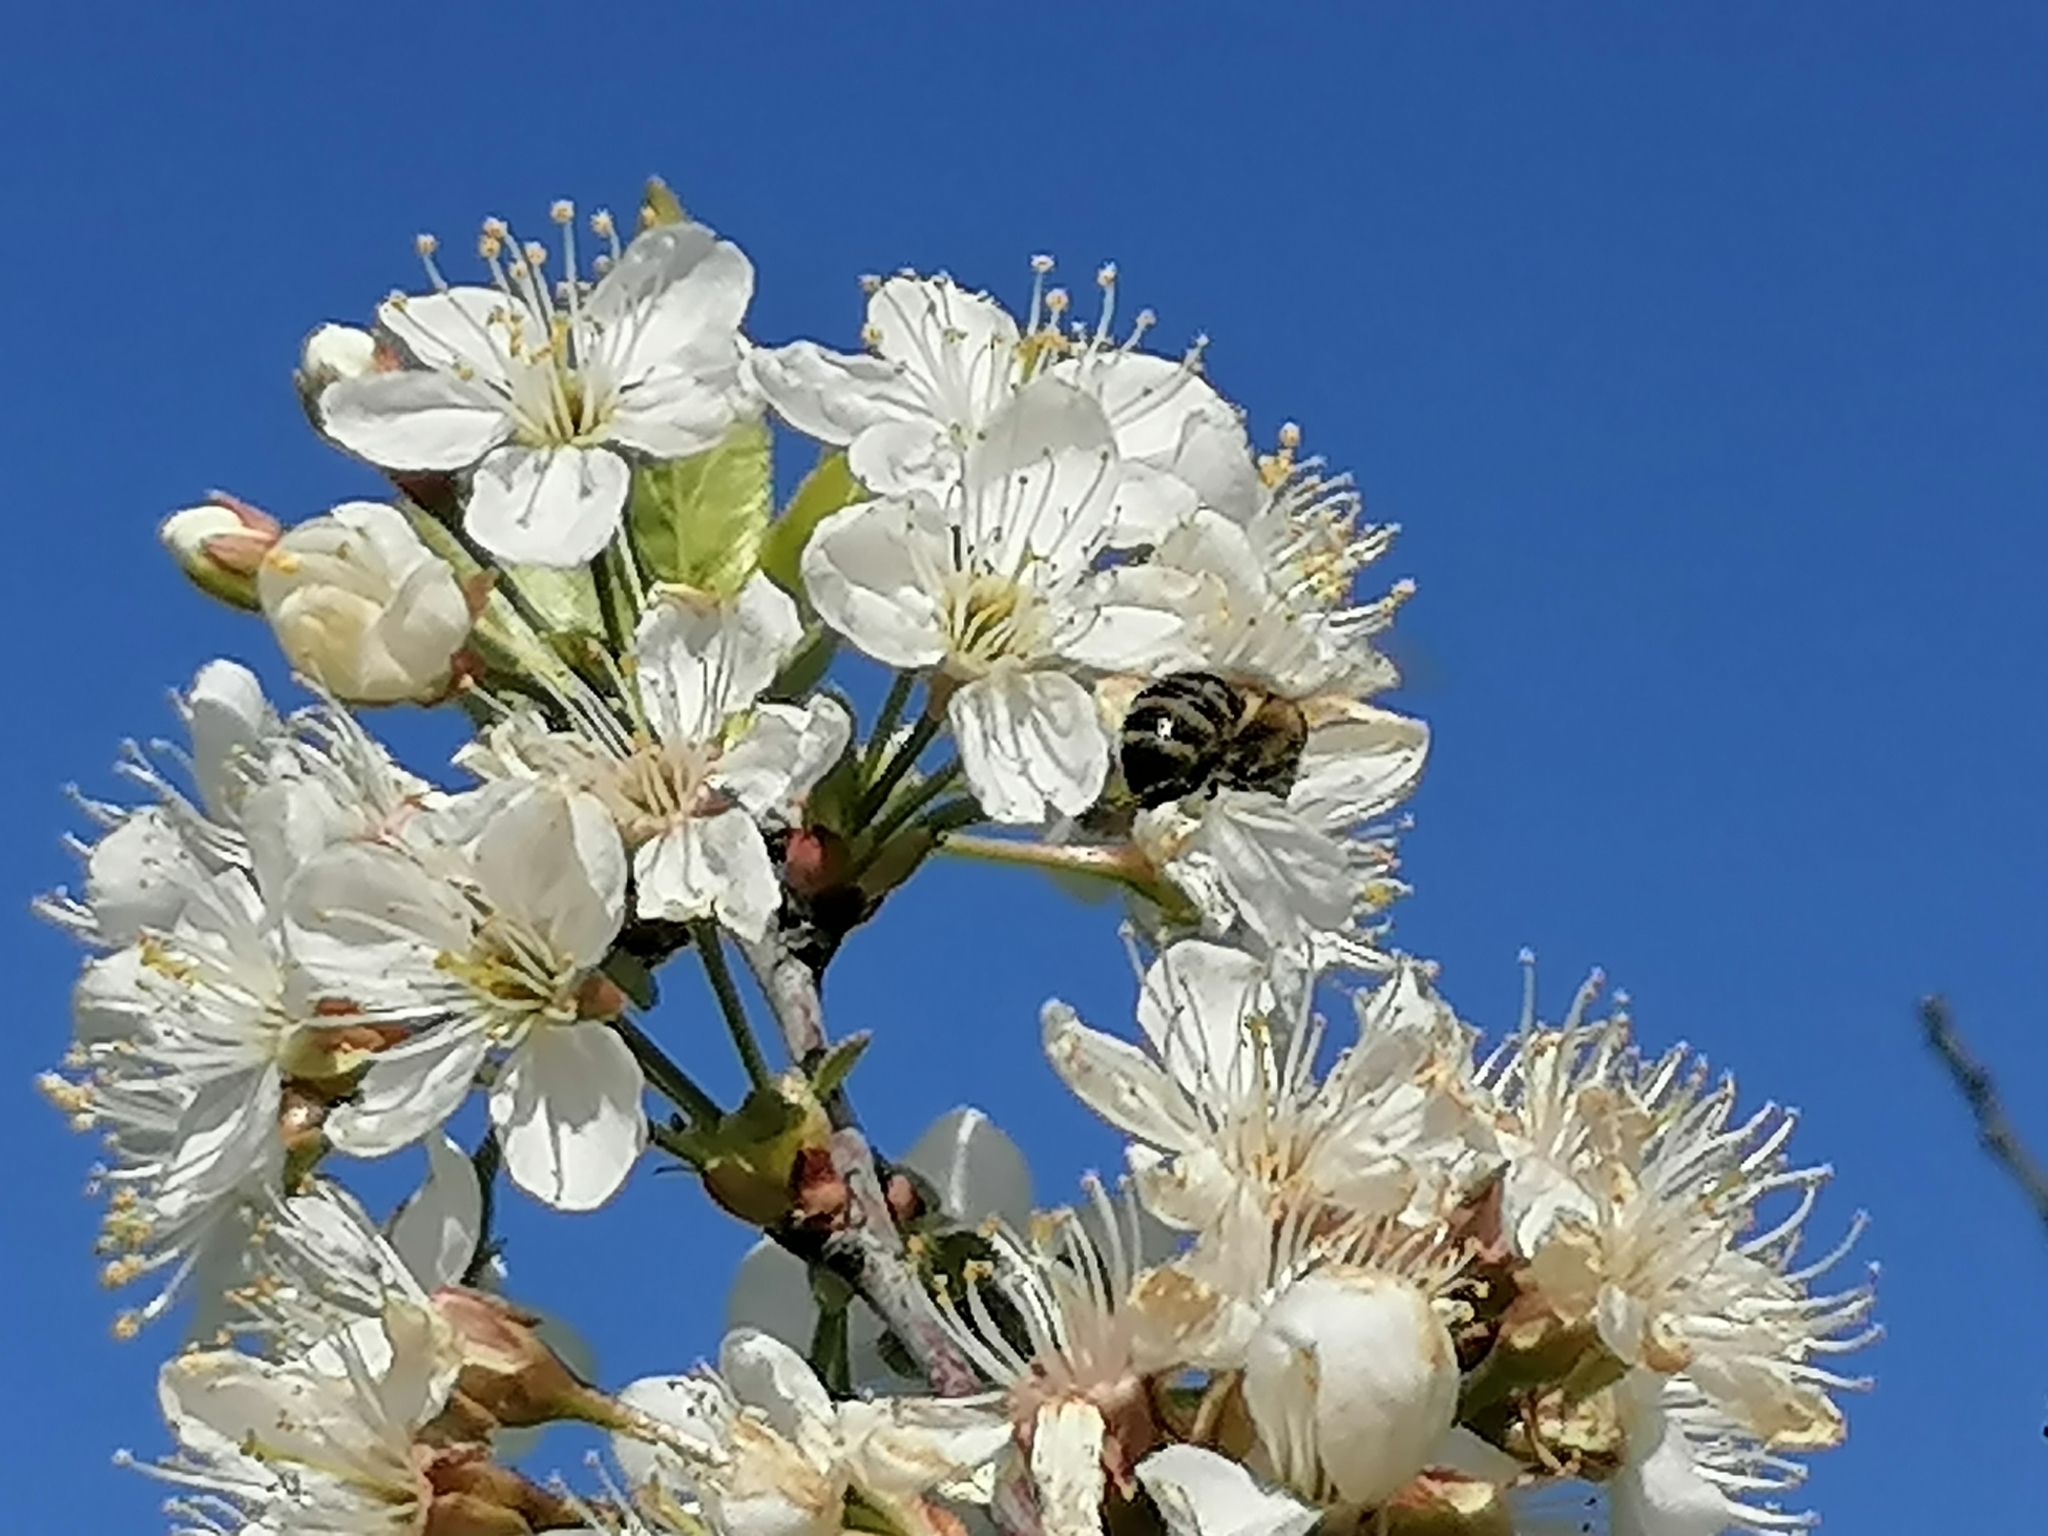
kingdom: Animalia
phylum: Arthropoda
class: Insecta
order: Hymenoptera
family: Apidae
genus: Apis
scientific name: Apis mellifera
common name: Honey bee
